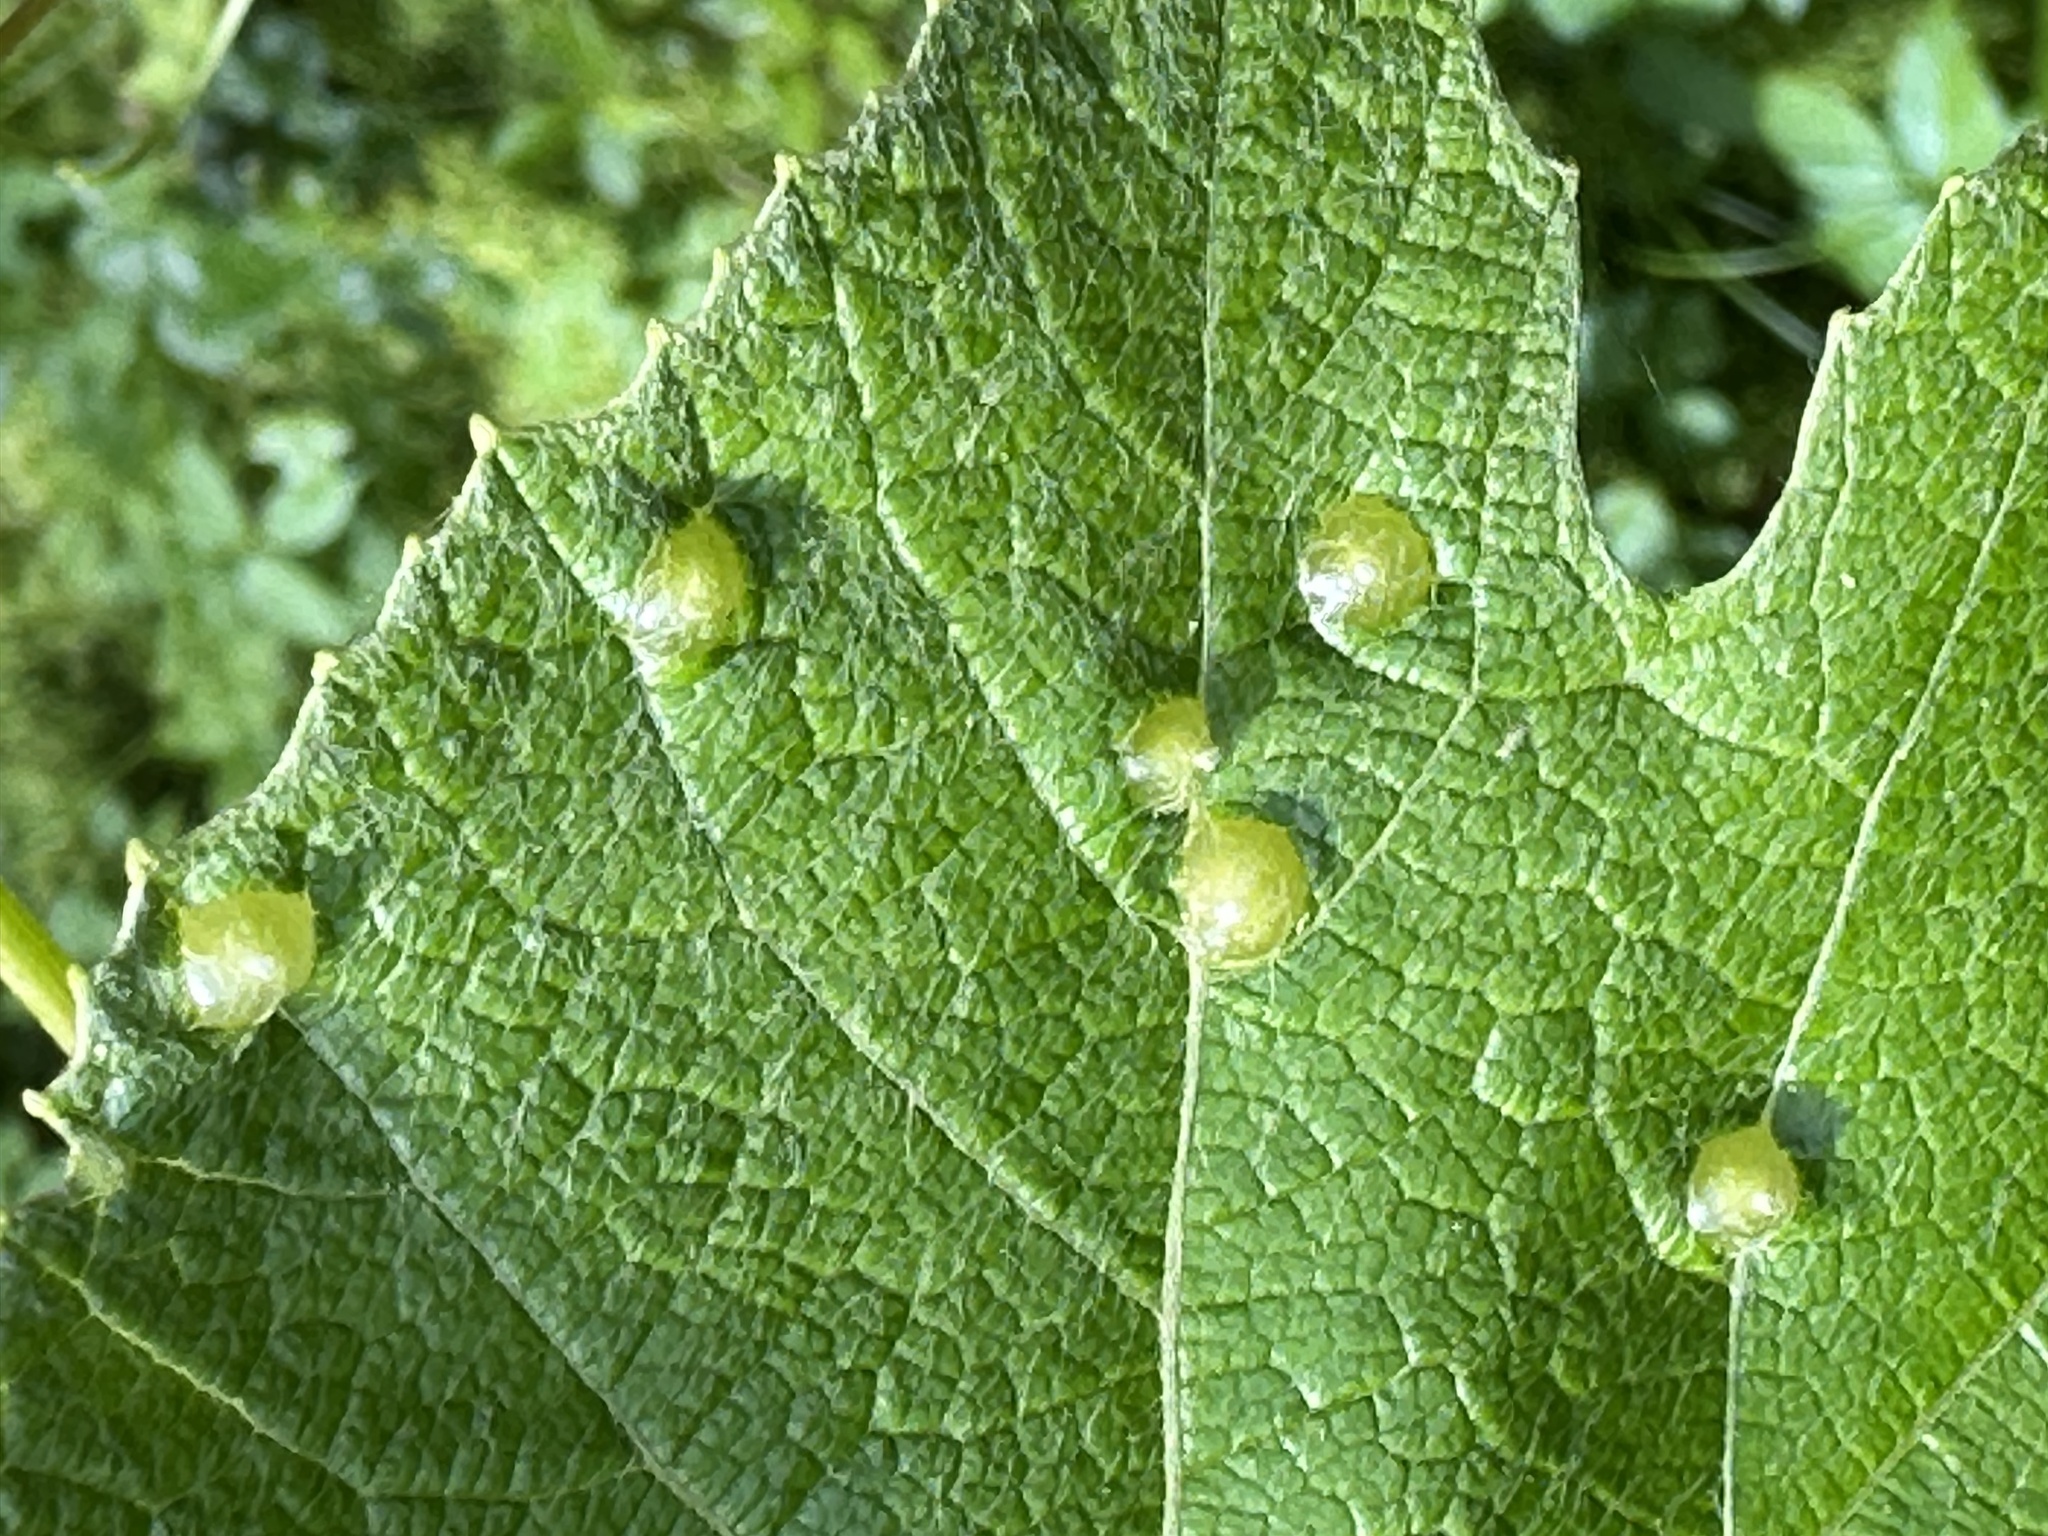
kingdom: Animalia
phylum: Arthropoda
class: Insecta
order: Diptera
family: Cecidomyiidae
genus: Vitisiella
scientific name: Vitisiella brevicauda
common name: Grape tumid gallmaker midge
